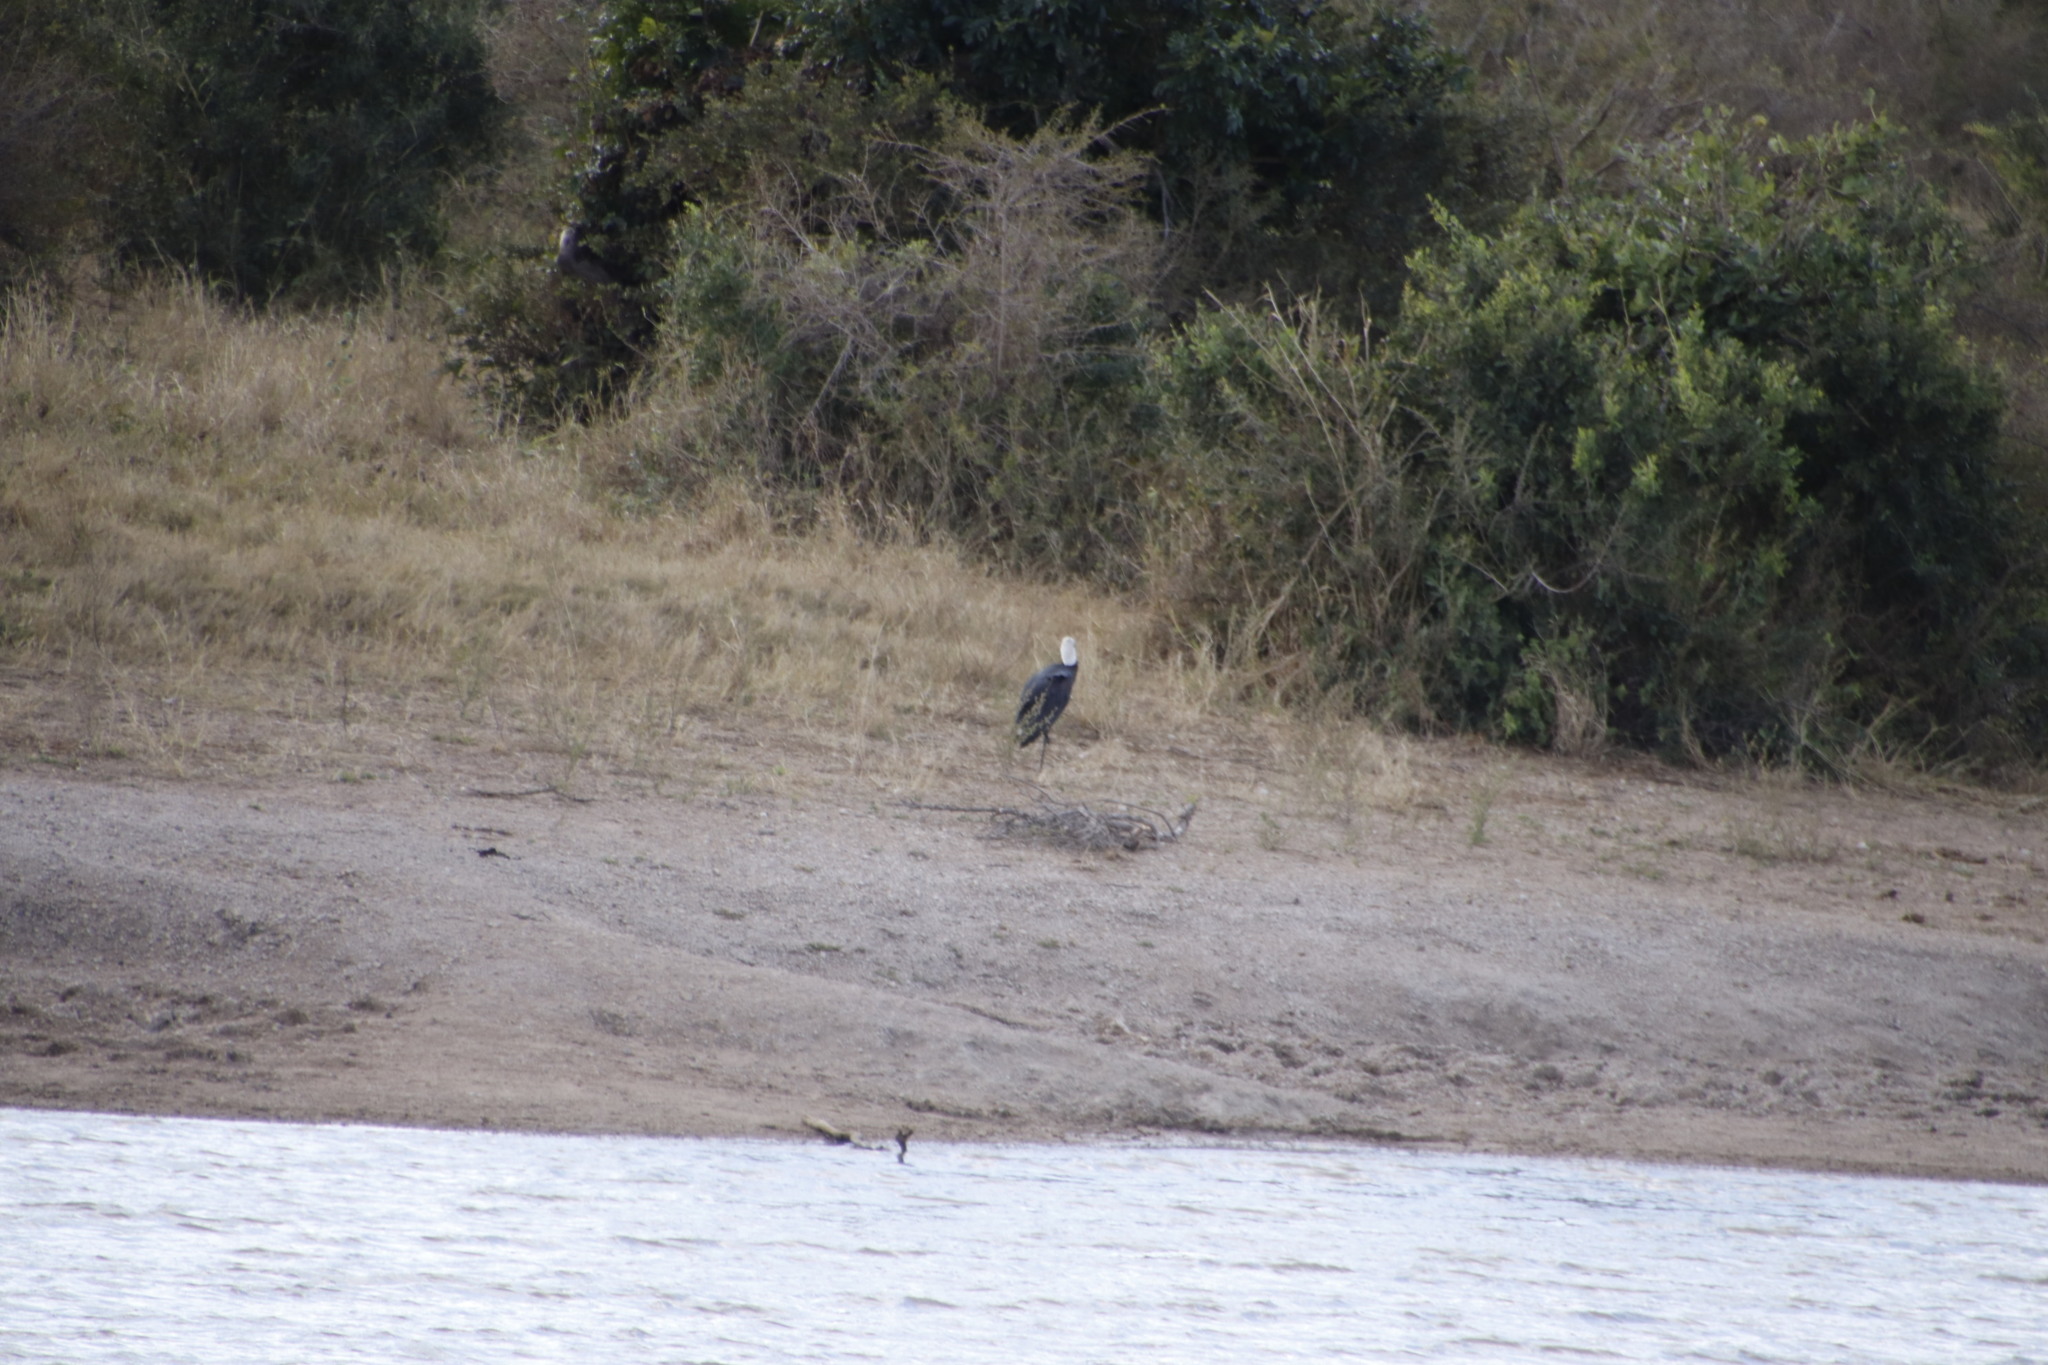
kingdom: Animalia
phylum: Chordata
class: Aves
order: Ciconiiformes
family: Ciconiidae
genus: Ciconia
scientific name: Ciconia microscelis
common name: African woollyneck
